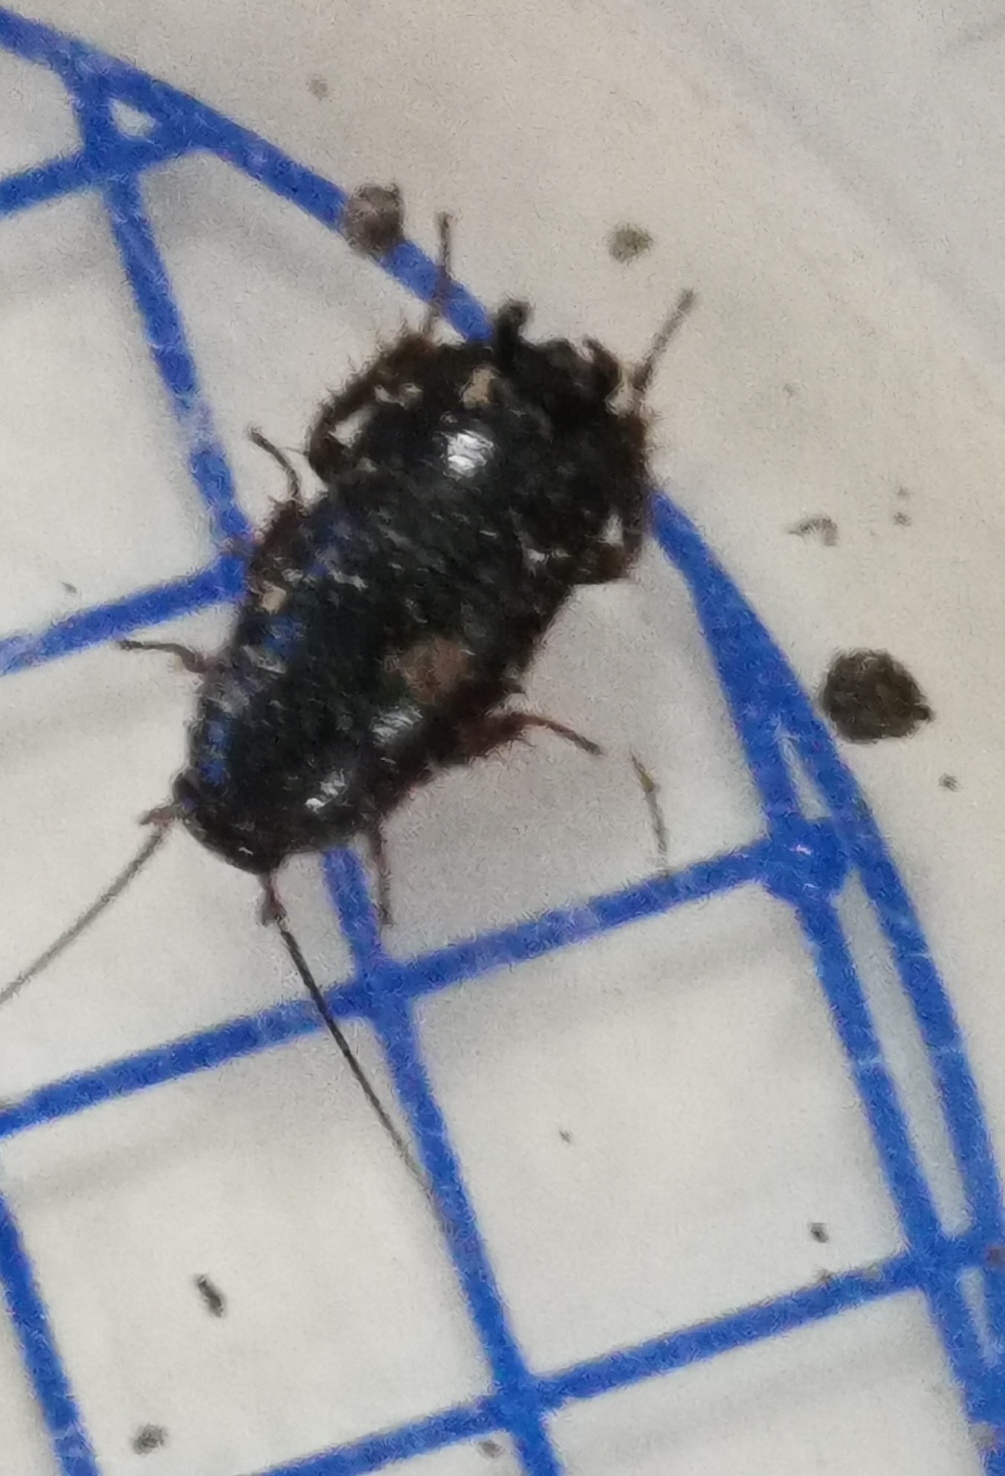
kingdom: Animalia
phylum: Arthropoda
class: Insecta
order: Blattodea
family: Ectobiidae
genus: Loboptera
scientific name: Loboptera canariensis
